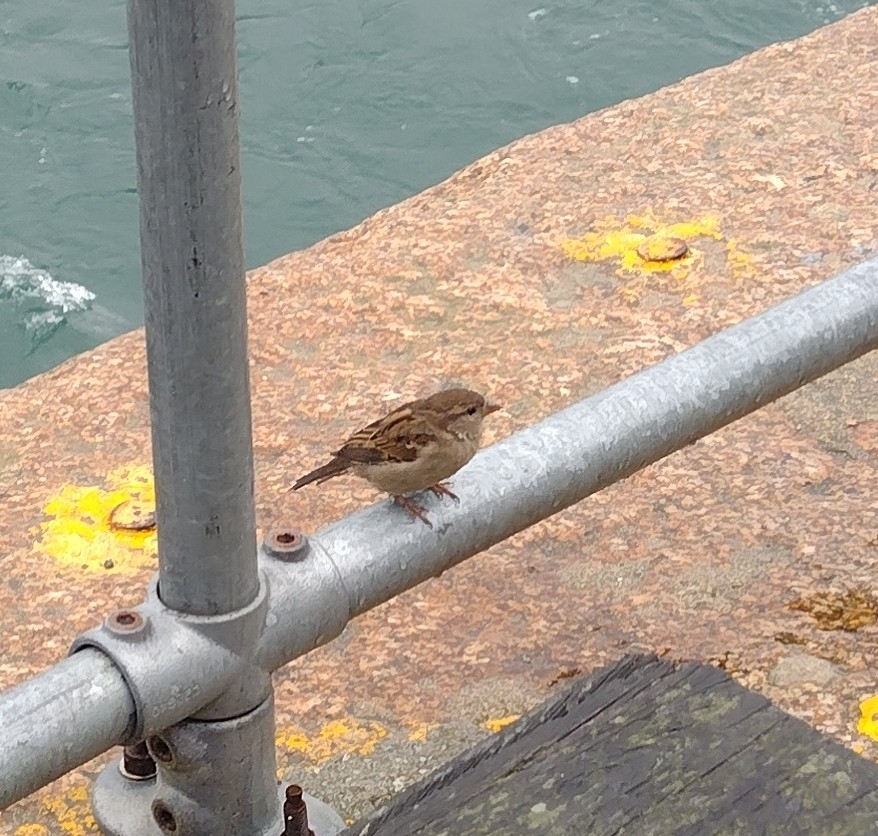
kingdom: Animalia
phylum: Chordata
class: Aves
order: Passeriformes
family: Passeridae
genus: Passer
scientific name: Passer domesticus
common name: House sparrow
